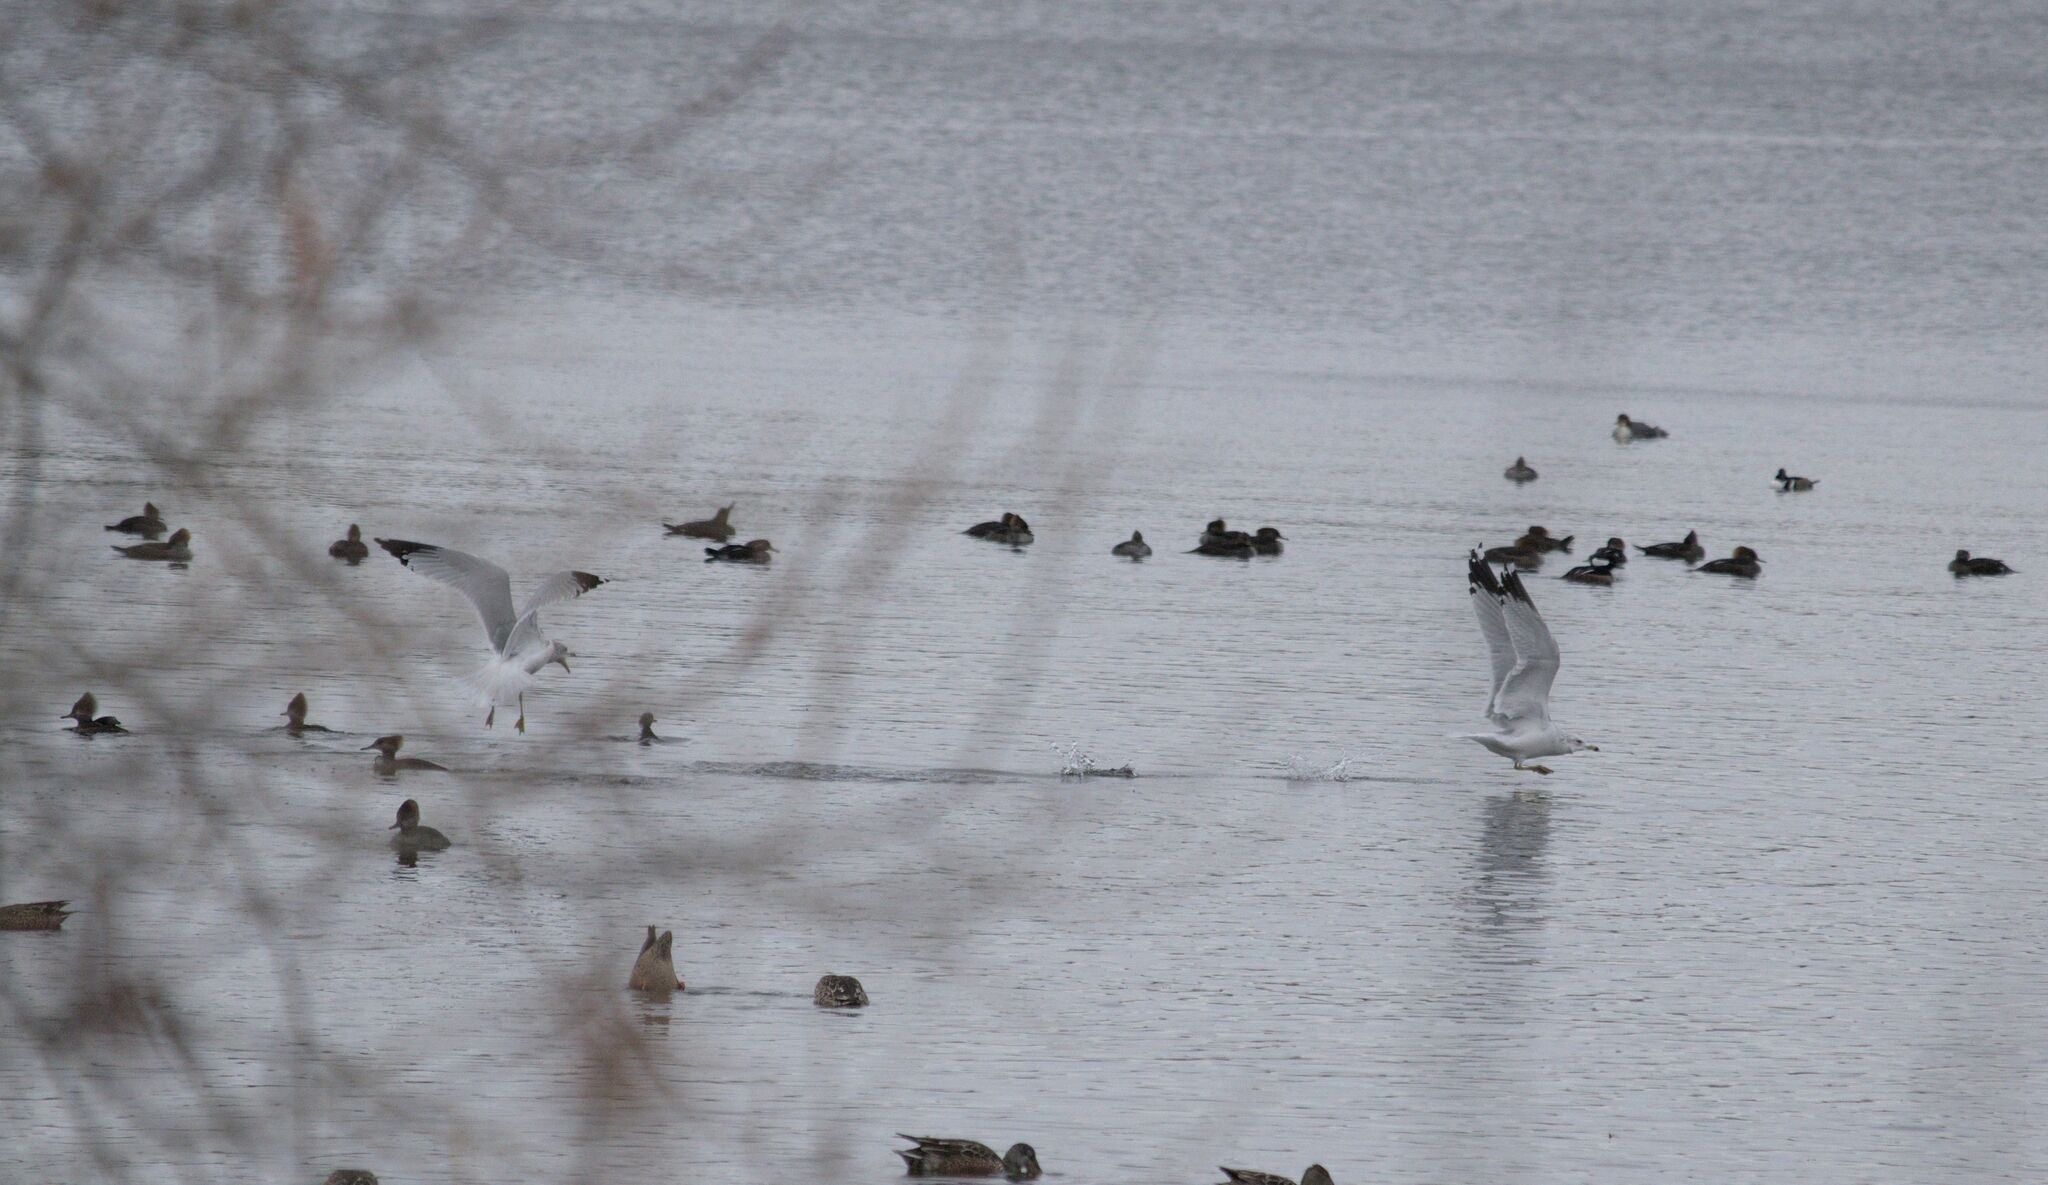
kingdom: Animalia
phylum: Chordata
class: Aves
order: Charadriiformes
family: Laridae
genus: Larus
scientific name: Larus delawarensis
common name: Ring-billed gull
